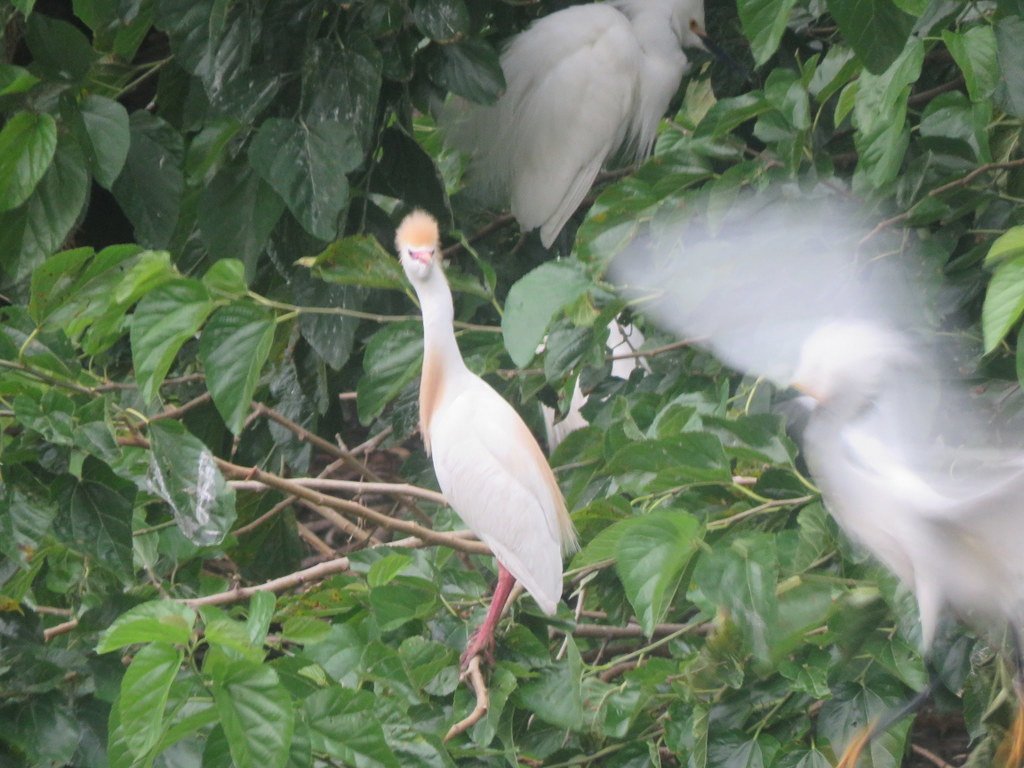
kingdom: Animalia
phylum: Chordata
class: Aves
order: Pelecaniformes
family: Ardeidae
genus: Bubulcus
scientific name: Bubulcus ibis
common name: Cattle egret
